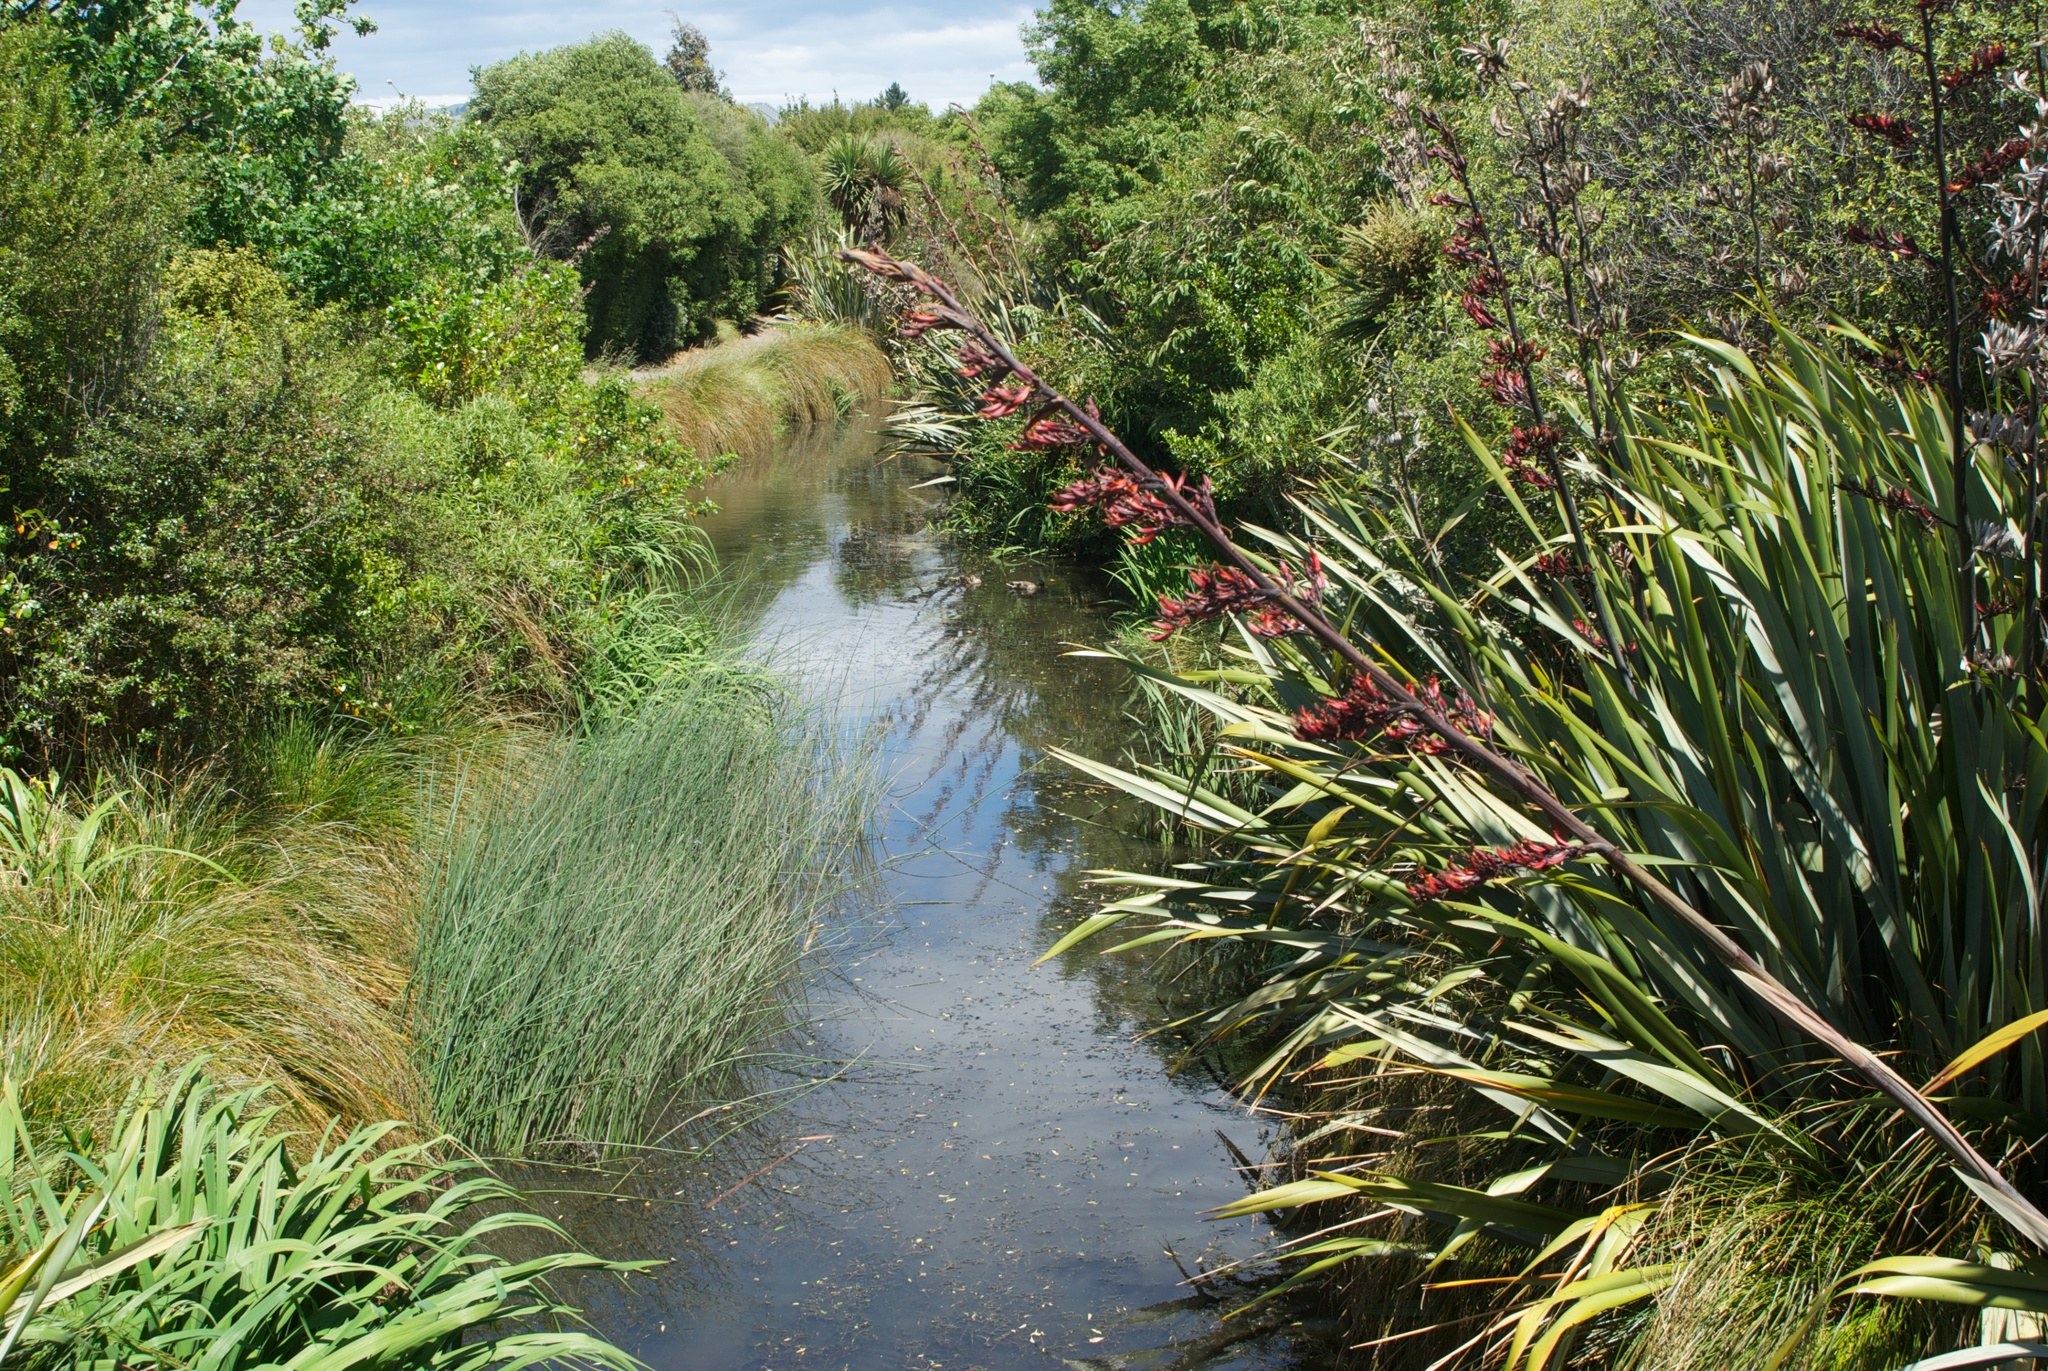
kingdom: Plantae
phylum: Tracheophyta
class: Liliopsida
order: Asparagales
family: Asphodelaceae
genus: Phormium
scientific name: Phormium tenax
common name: New zealand flax
